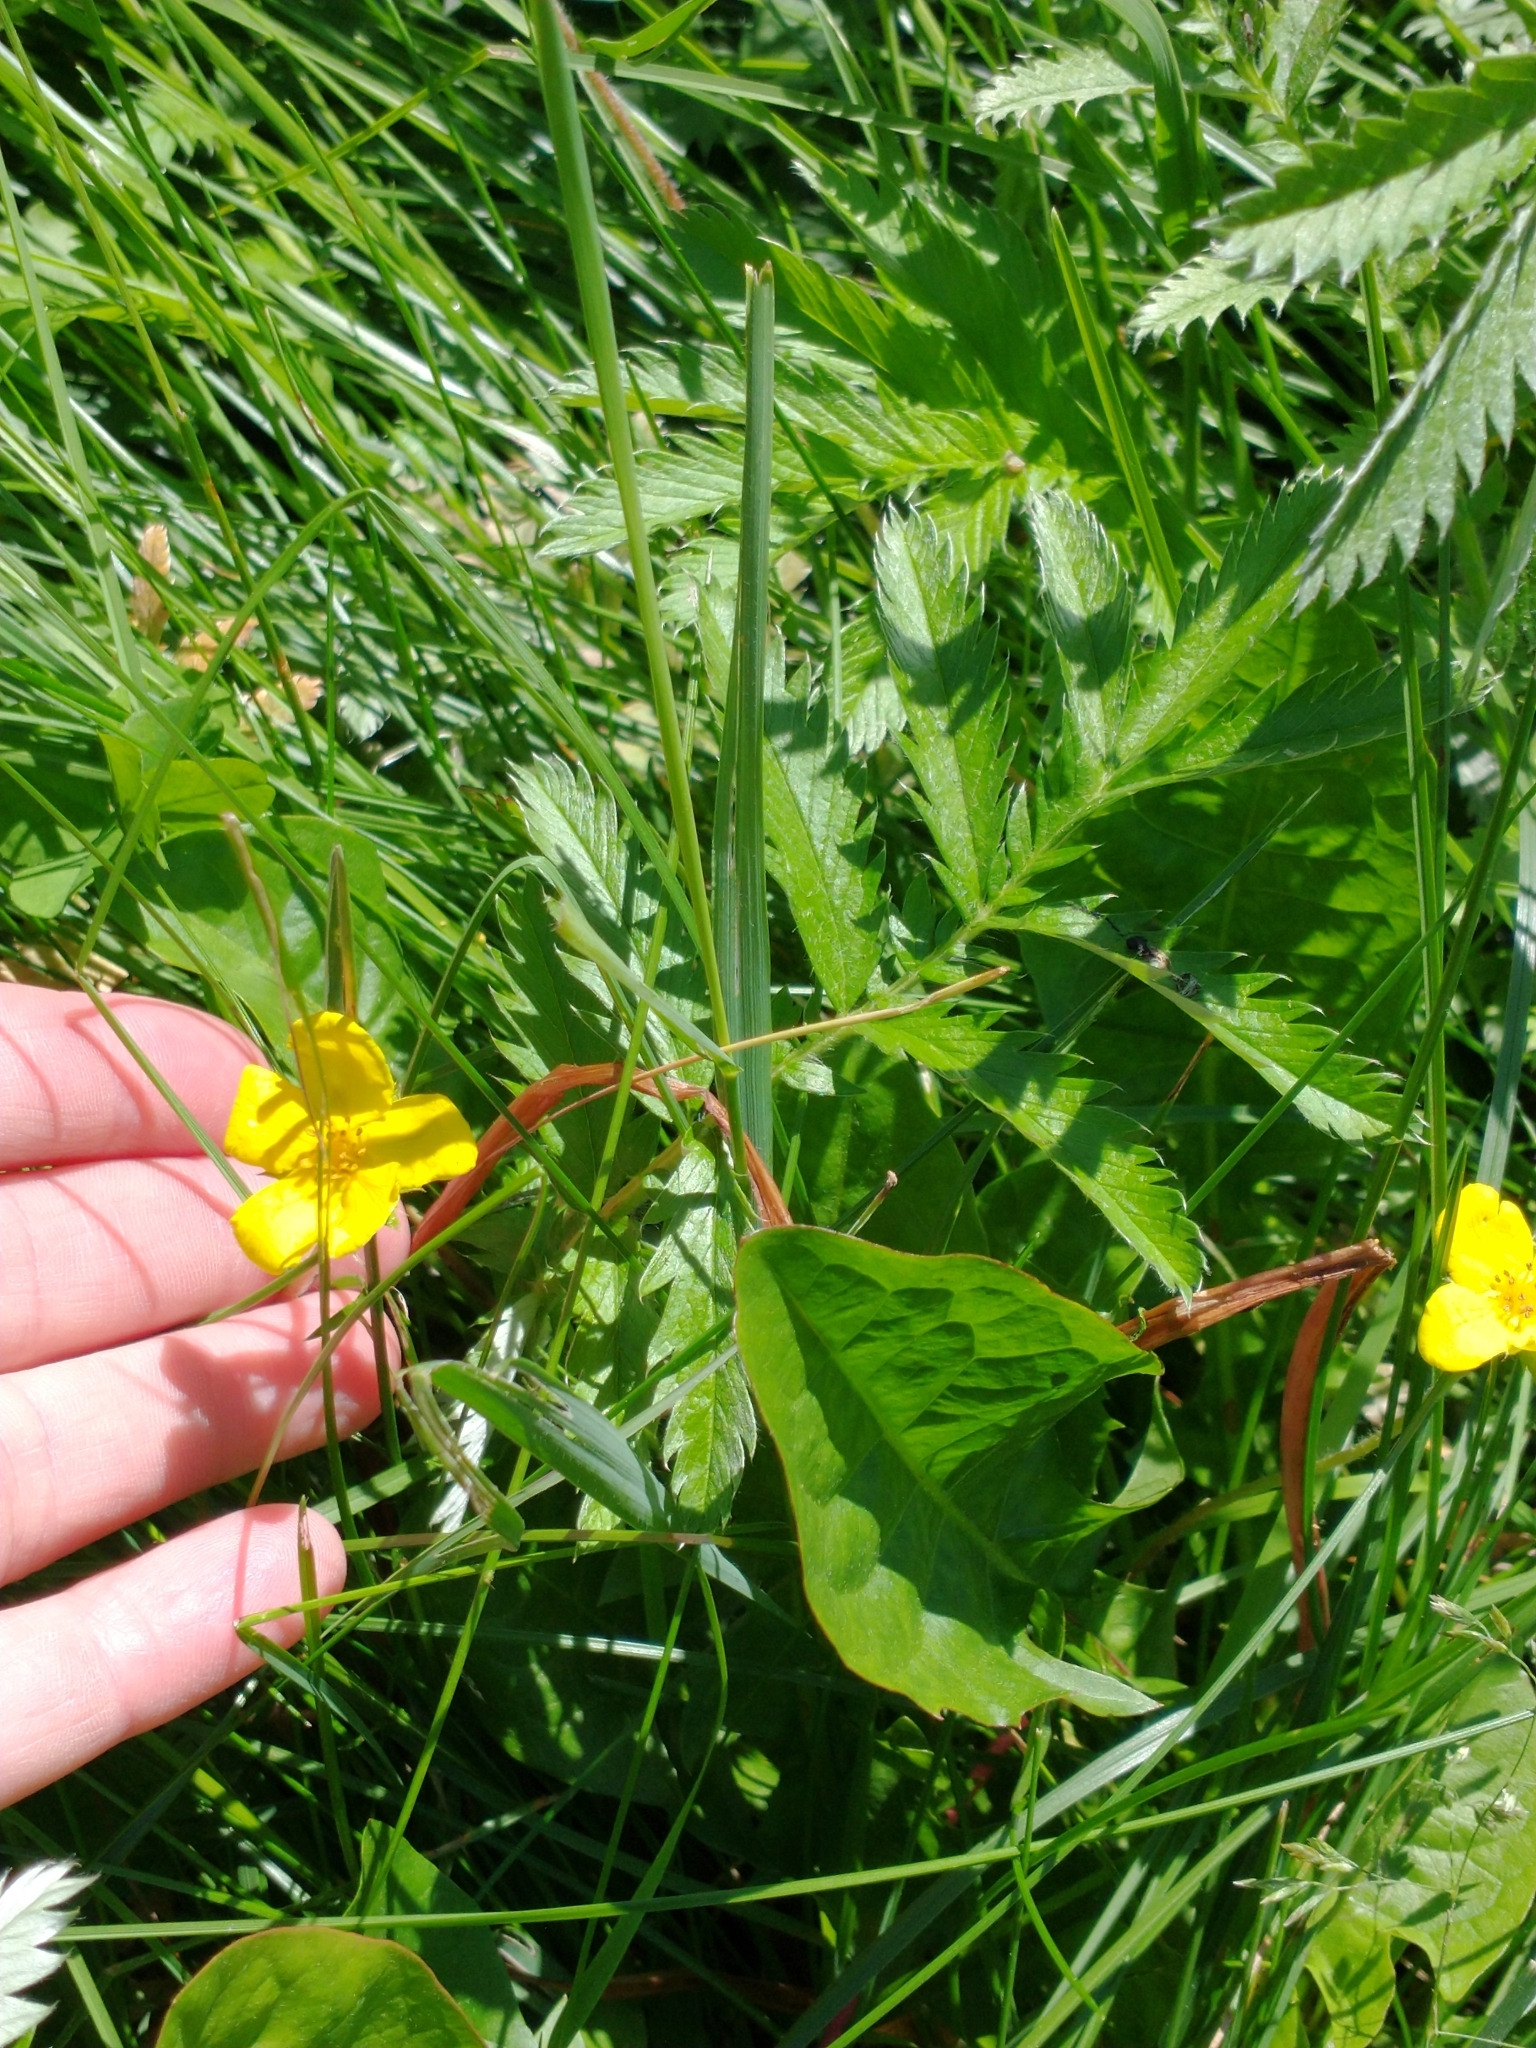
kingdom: Plantae
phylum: Tracheophyta
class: Magnoliopsida
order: Rosales
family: Rosaceae
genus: Argentina
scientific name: Argentina anserina
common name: Common silverweed
